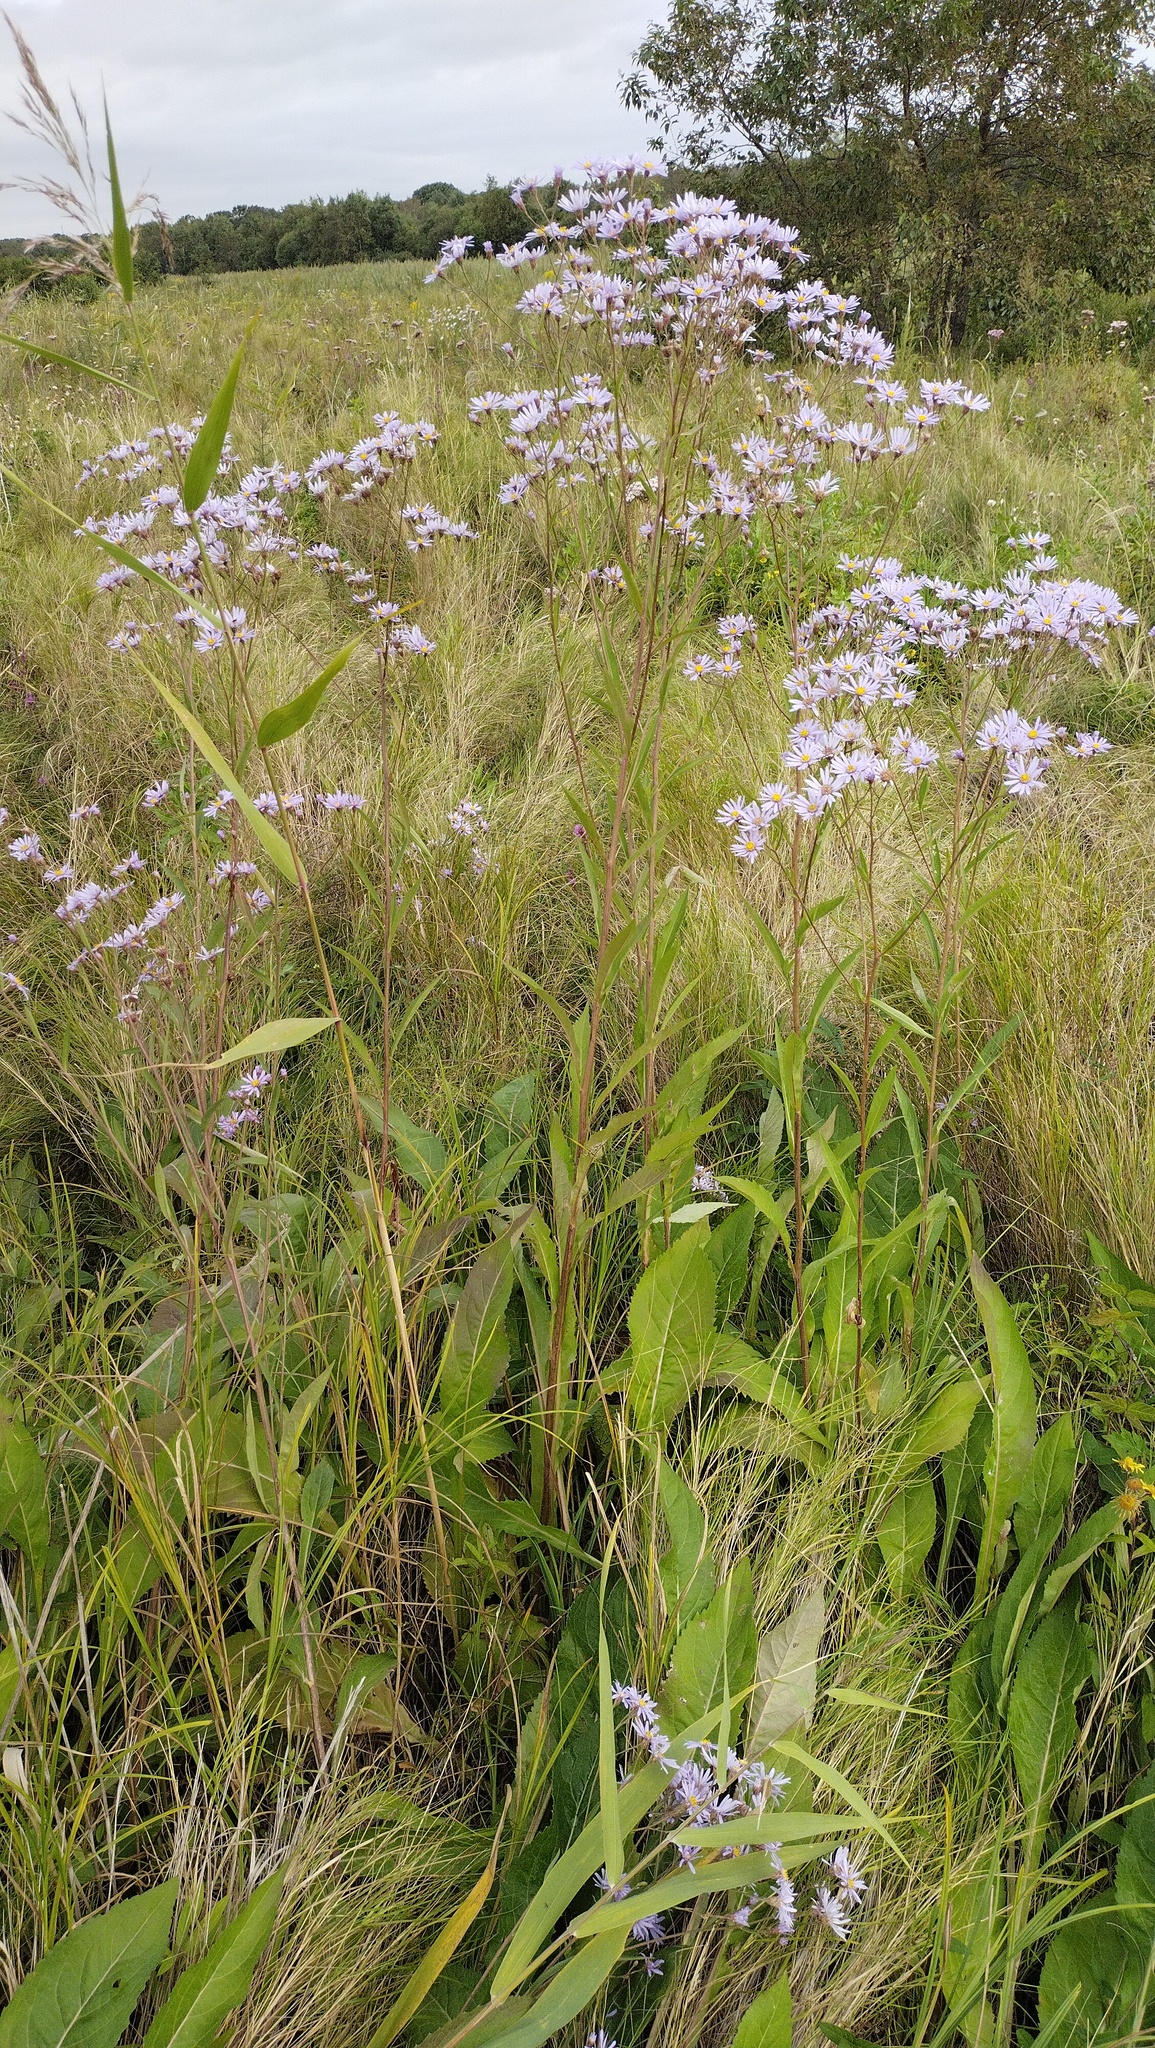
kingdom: Plantae
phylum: Tracheophyta
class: Magnoliopsida
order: Asterales
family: Asteraceae
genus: Aster
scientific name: Aster tataricus
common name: Tatarian aster
